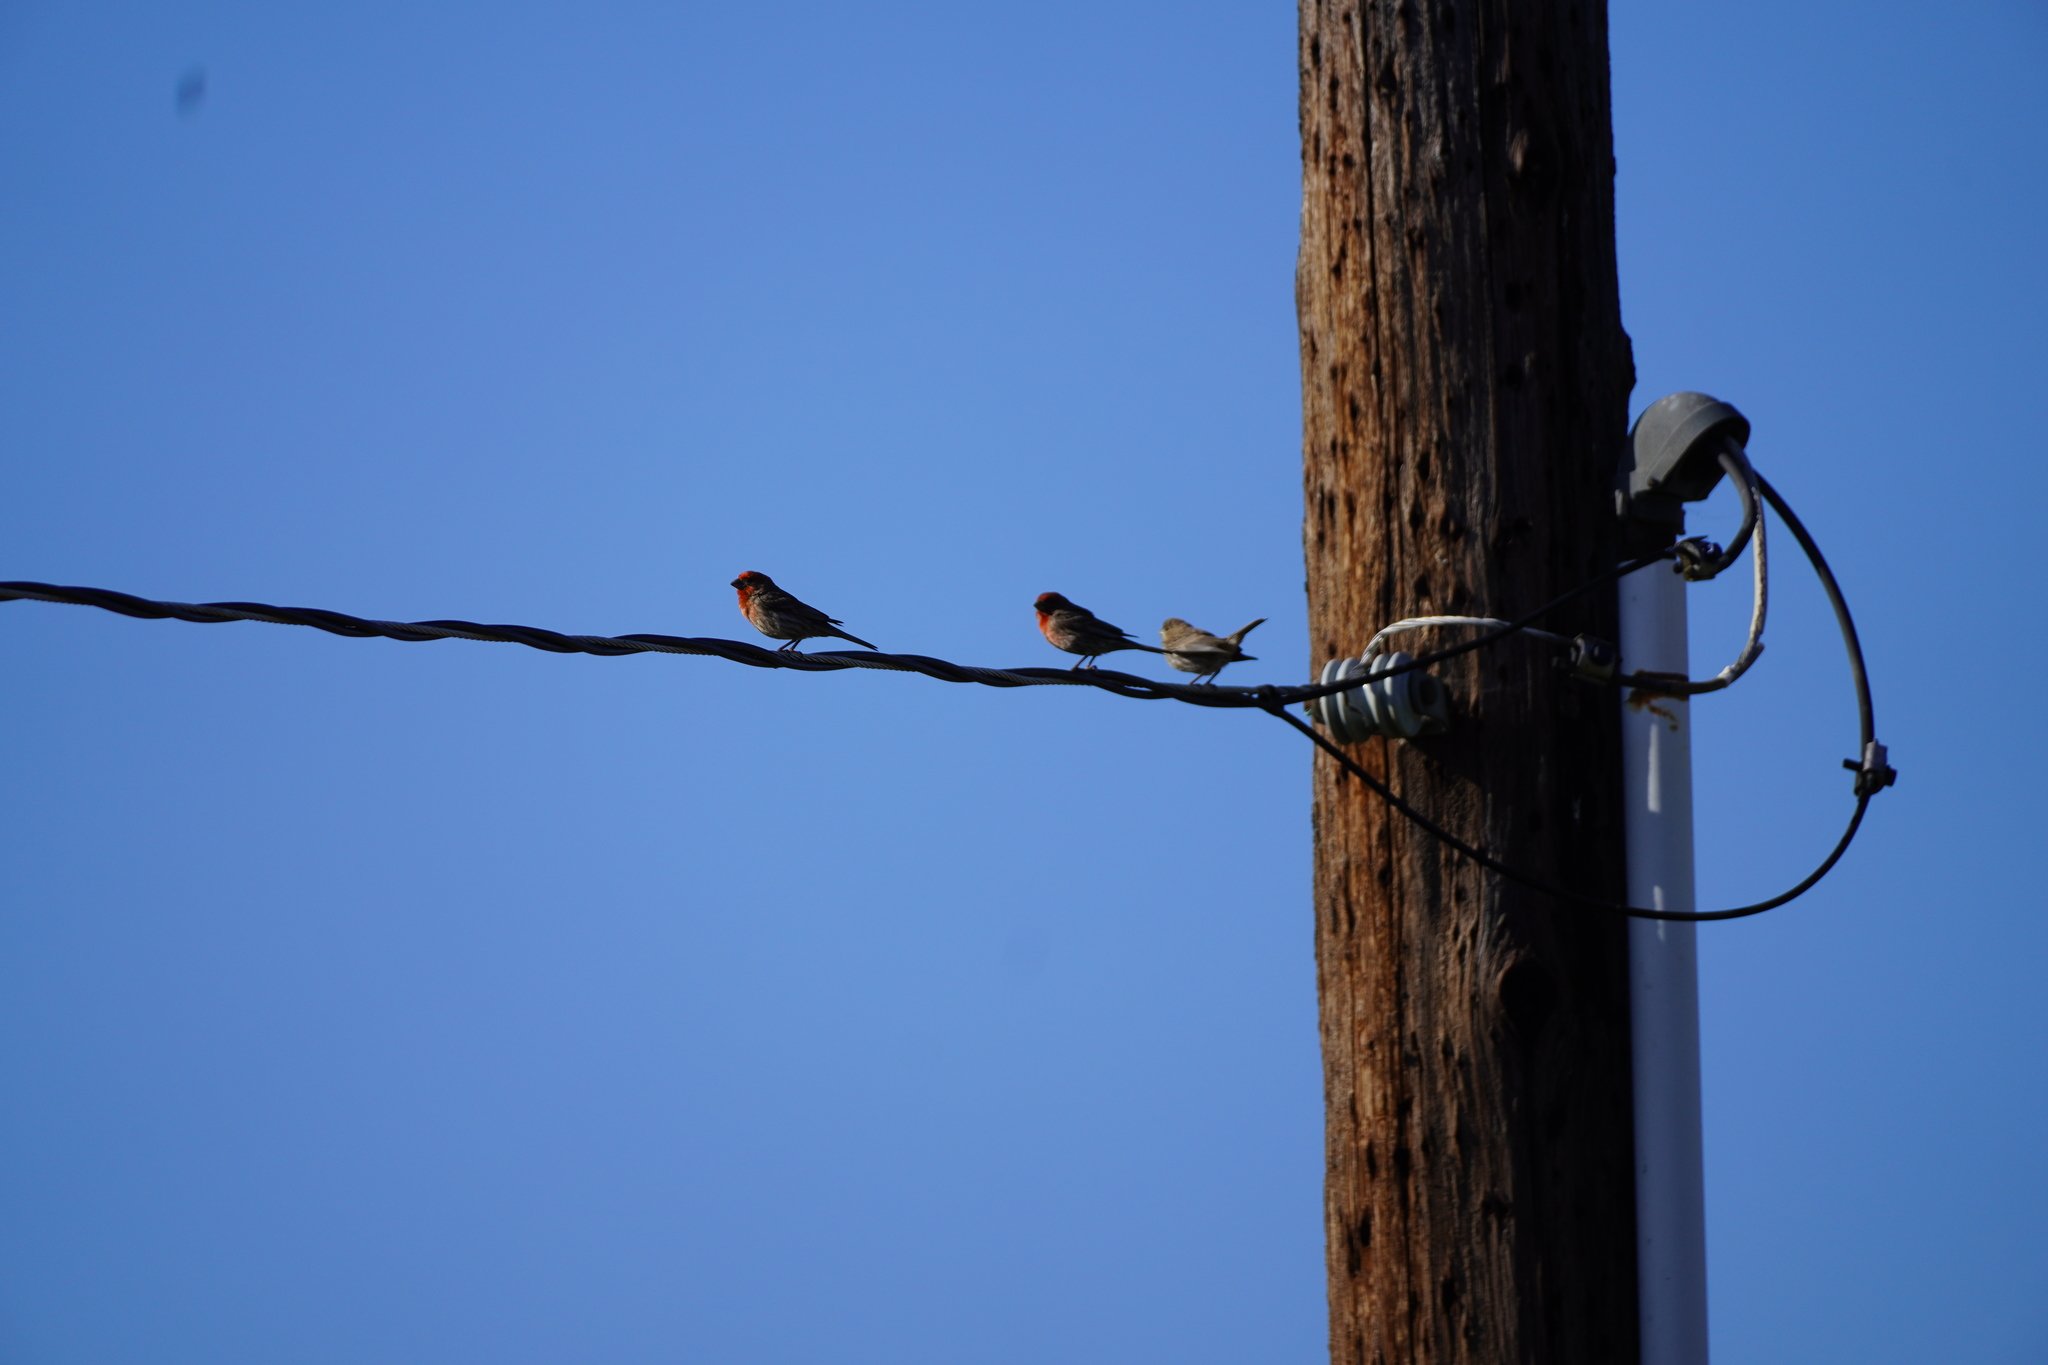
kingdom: Animalia
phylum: Chordata
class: Aves
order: Passeriformes
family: Fringillidae
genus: Haemorhous
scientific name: Haemorhous mexicanus
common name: House finch
